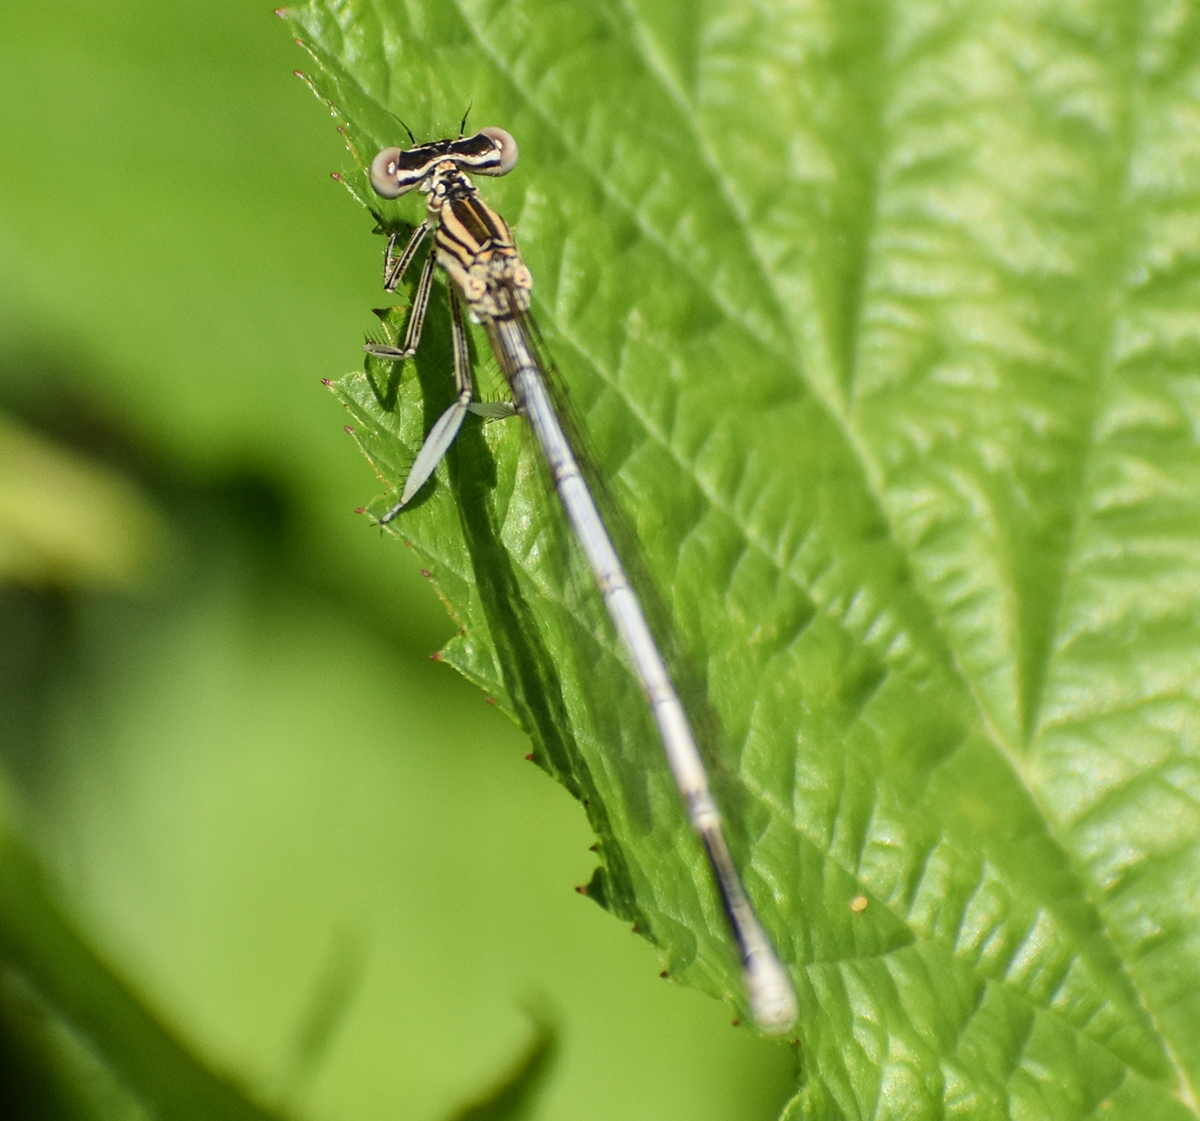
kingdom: Animalia
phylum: Arthropoda
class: Insecta
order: Odonata
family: Platycnemididae
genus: Platycnemis
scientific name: Platycnemis pennipes
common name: White-legged damselfly
